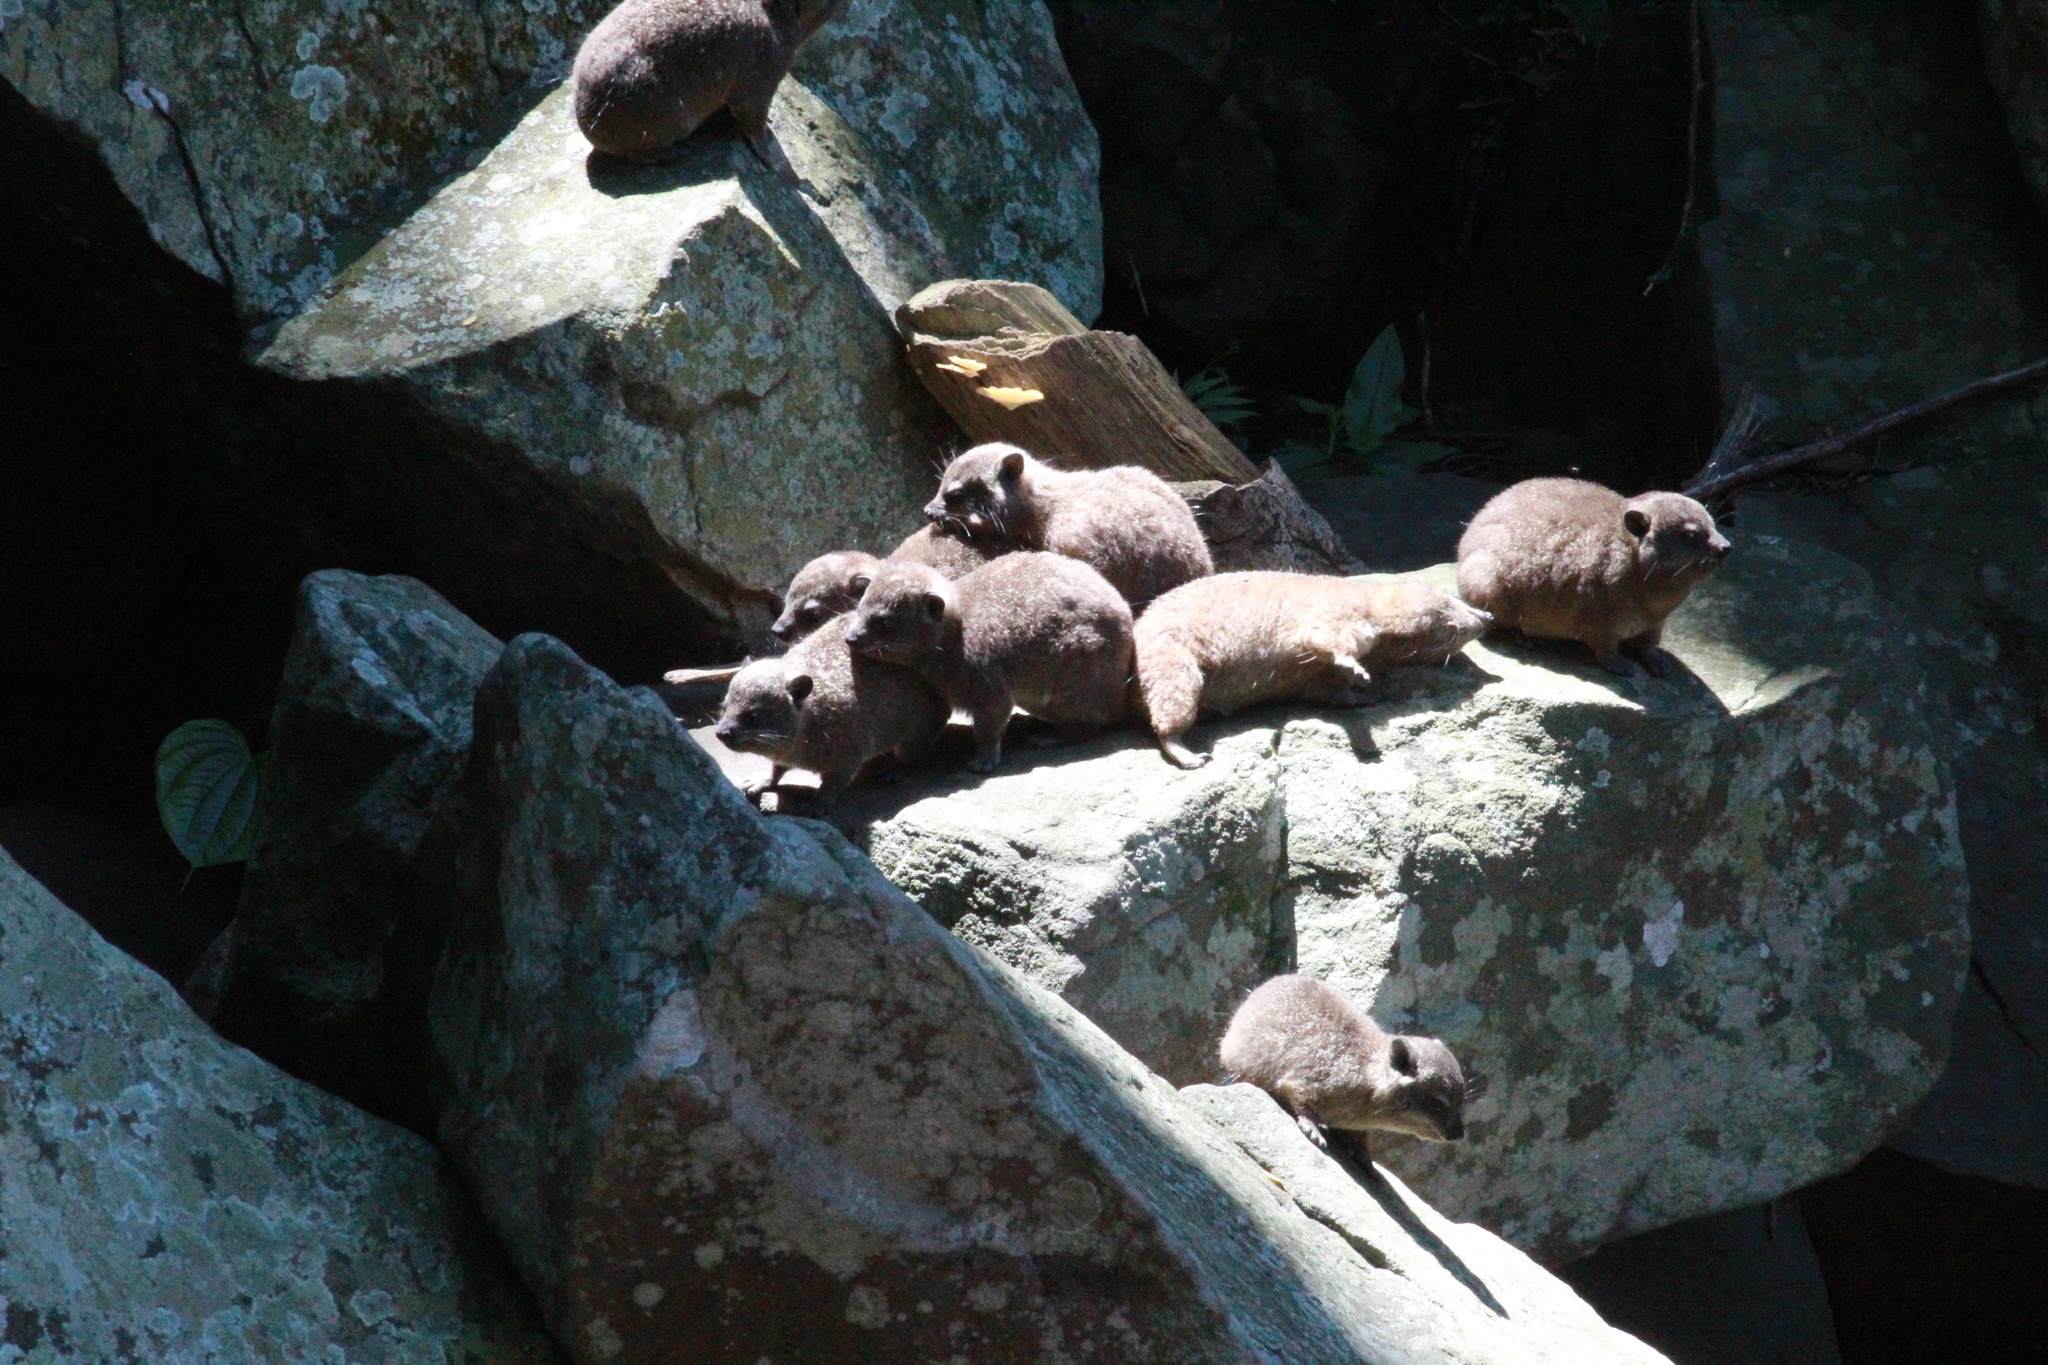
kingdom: Animalia
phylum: Chordata
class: Mammalia
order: Hyracoidea
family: Procaviidae
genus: Procavia
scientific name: Procavia capensis
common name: Rock hyrax
